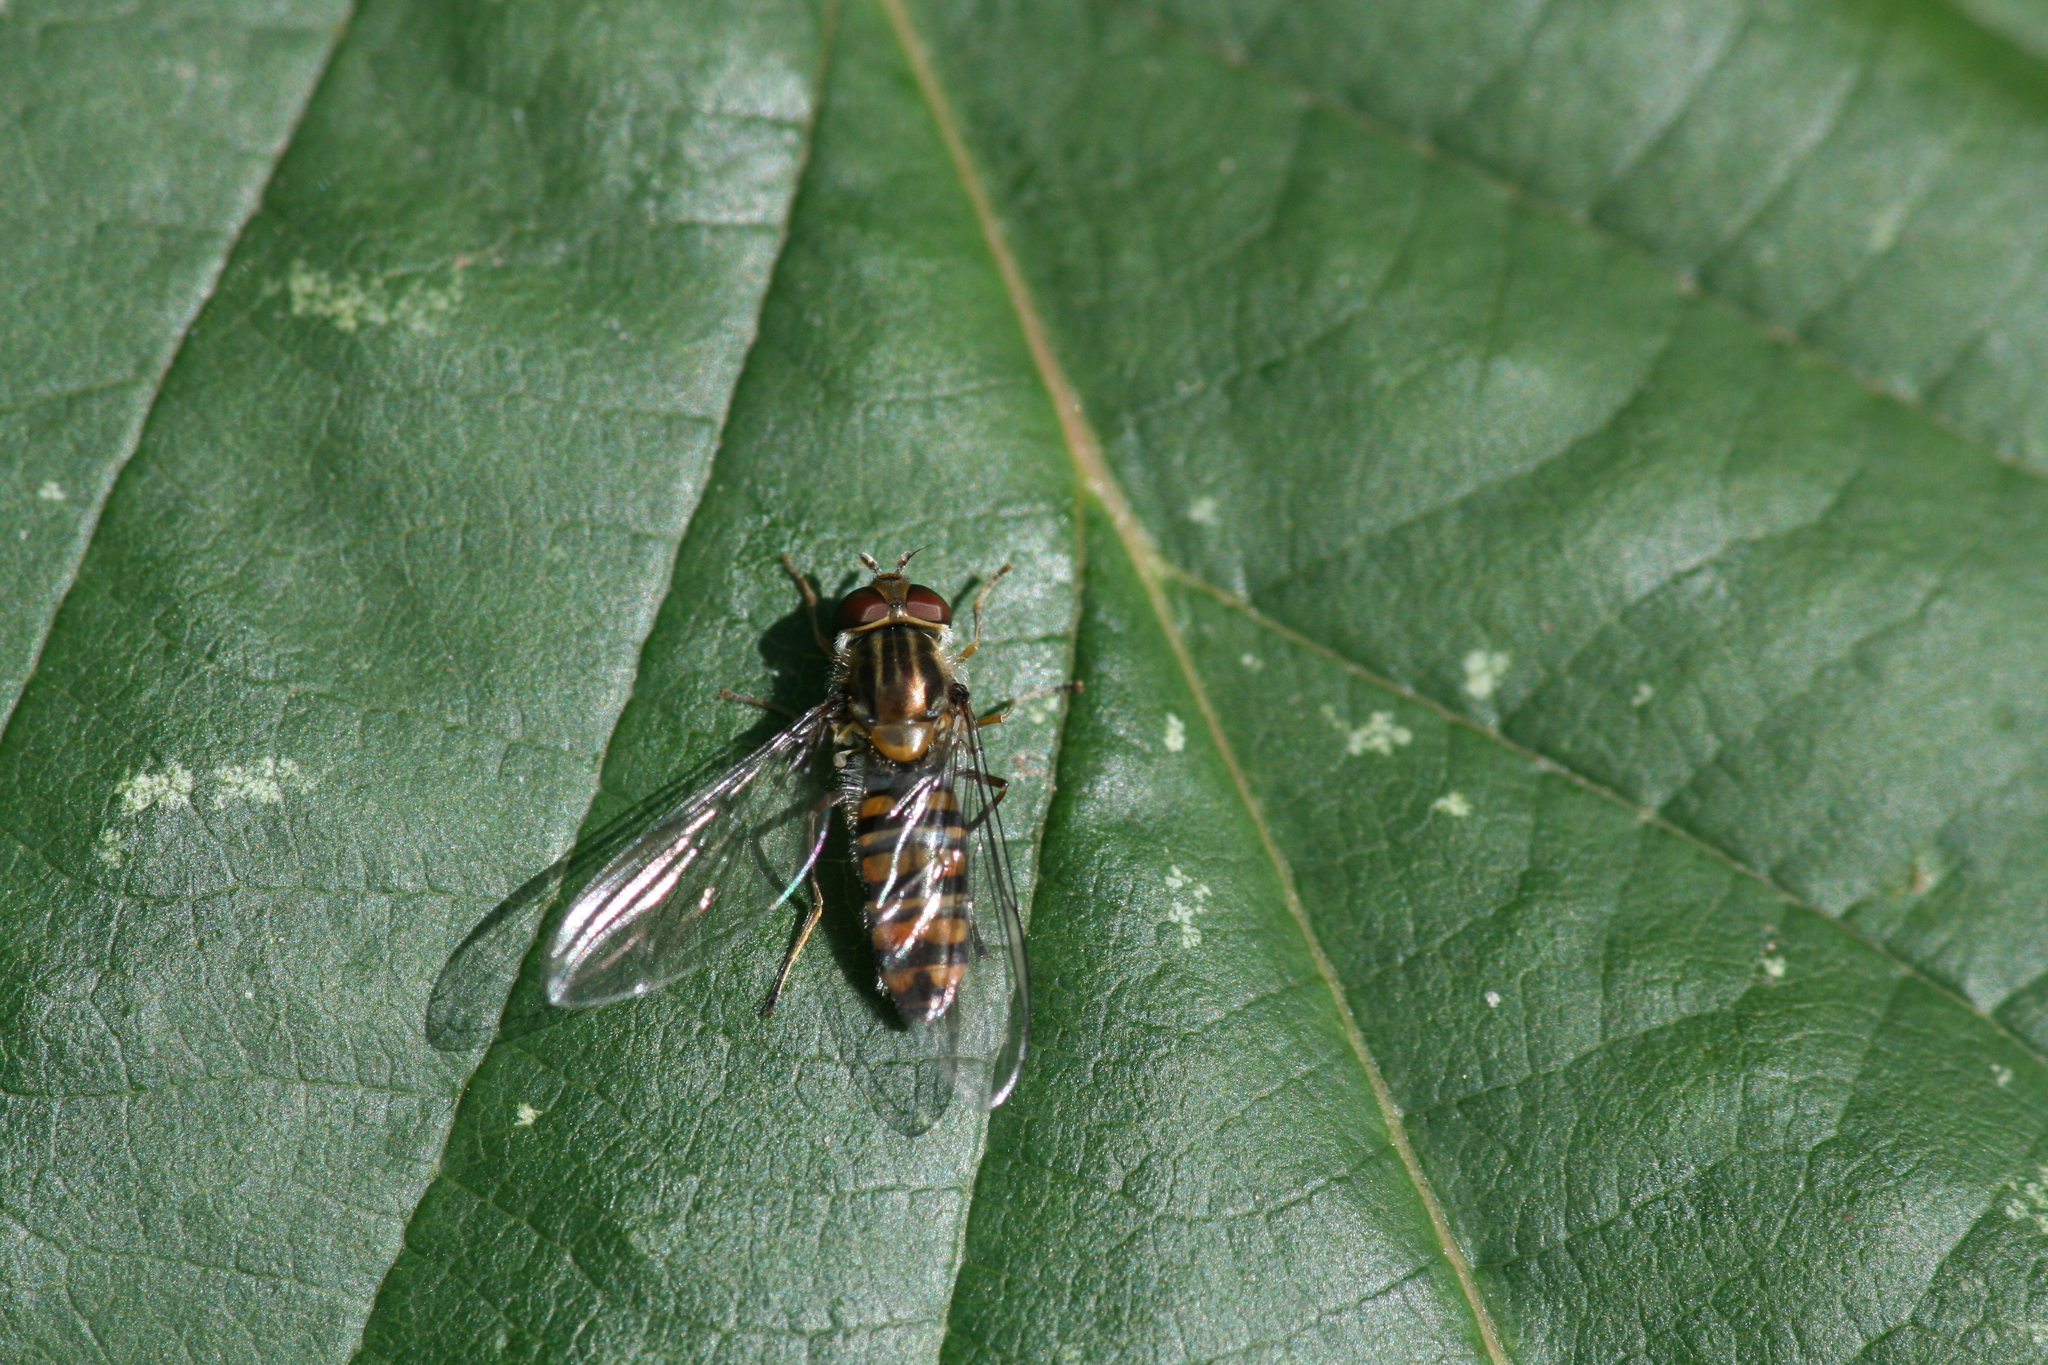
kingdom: Animalia
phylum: Arthropoda
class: Insecta
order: Diptera
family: Syrphidae
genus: Episyrphus
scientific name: Episyrphus balteatus
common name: Marmalade hoverfly
